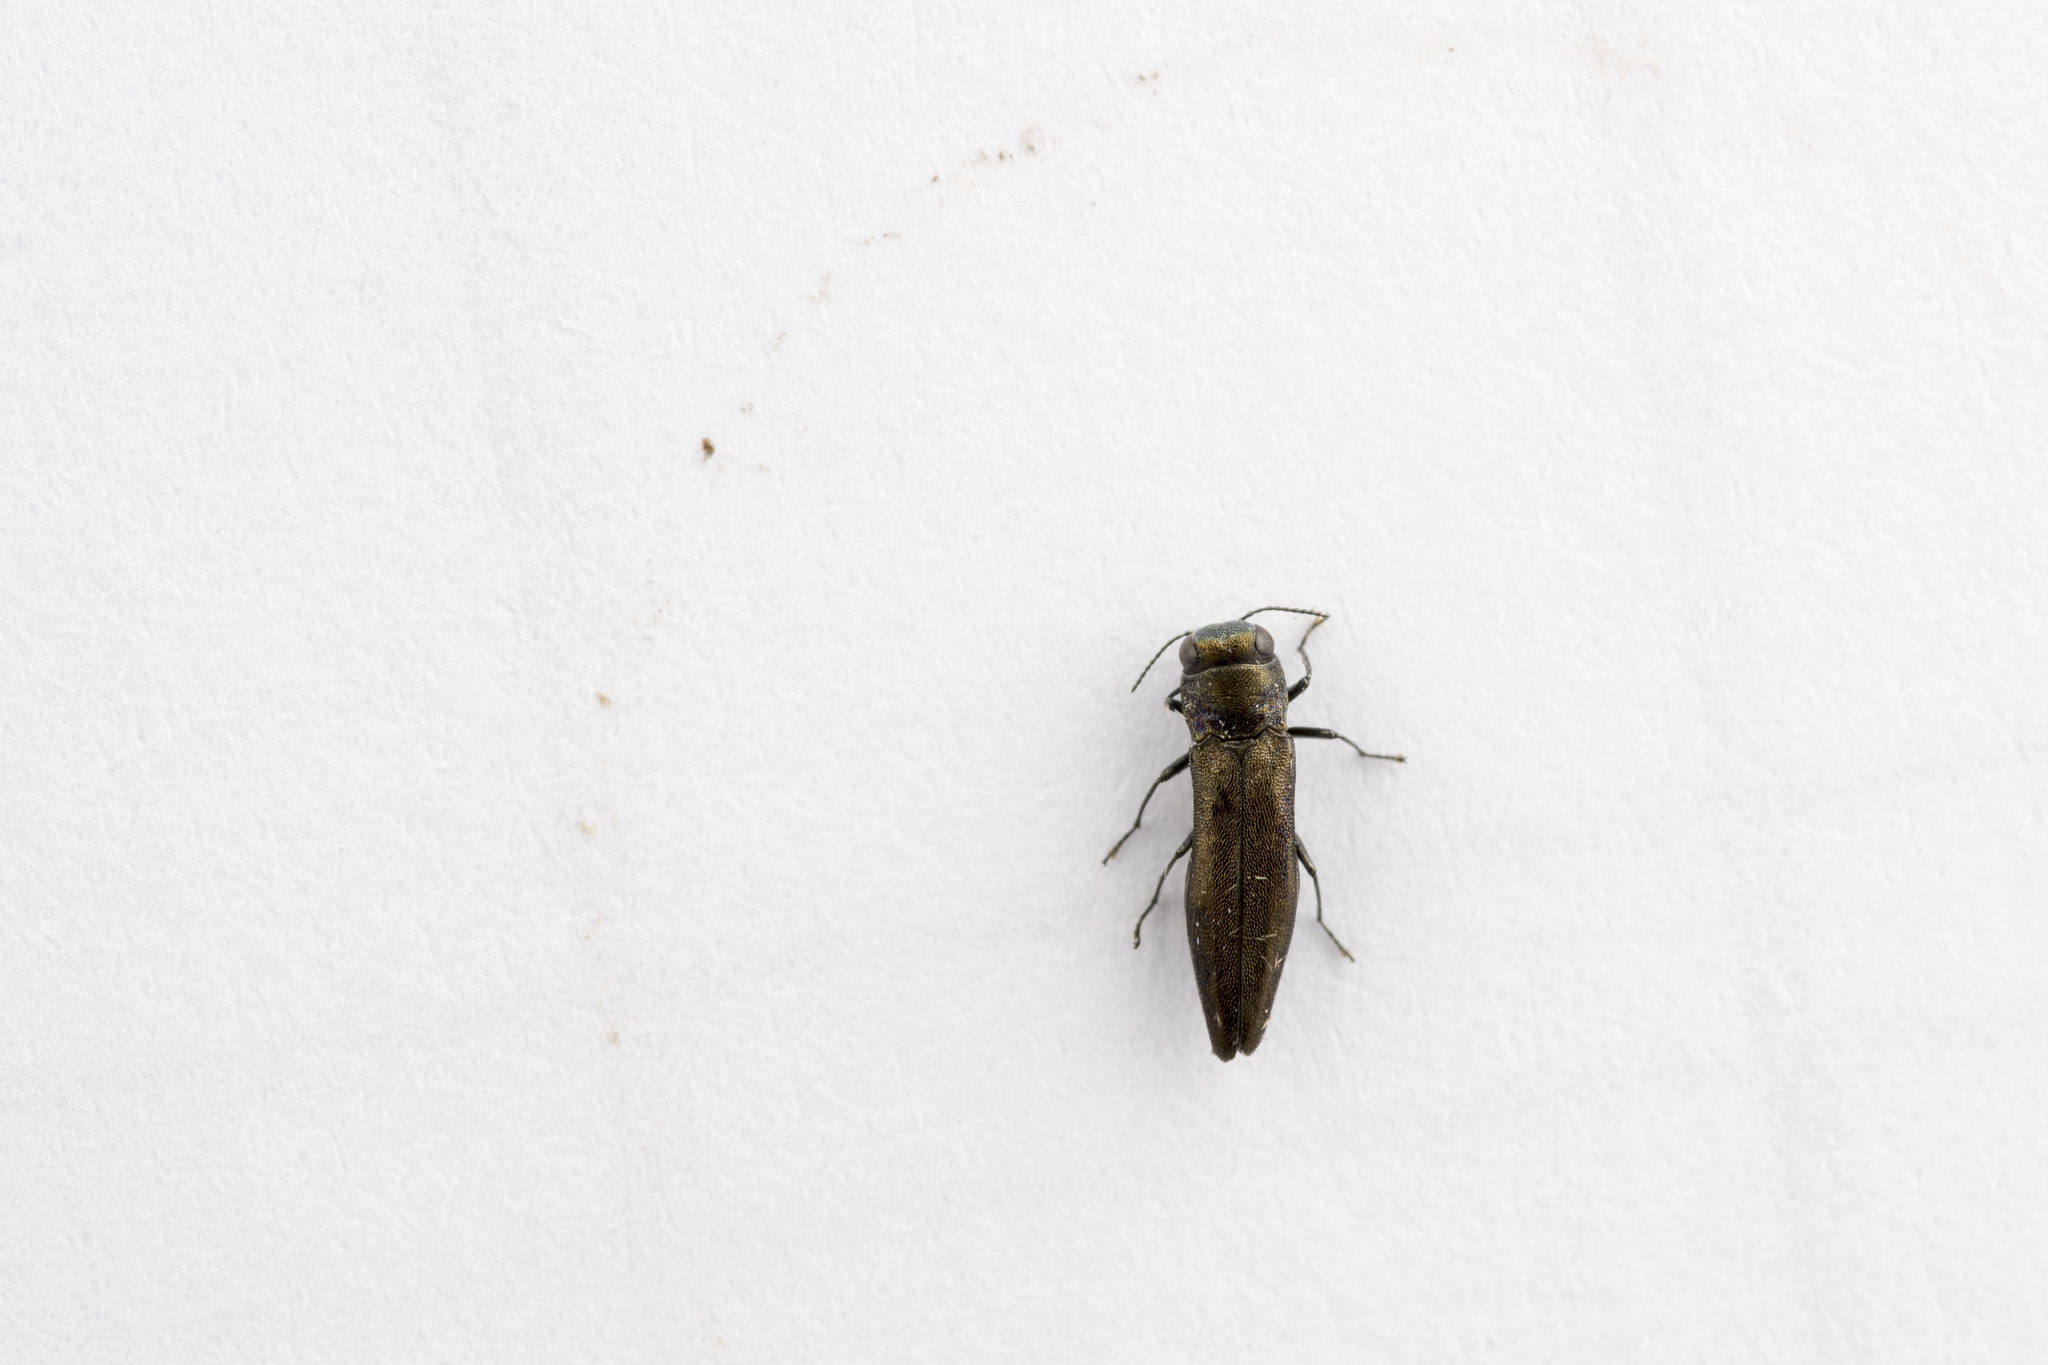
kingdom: Animalia
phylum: Arthropoda
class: Insecta
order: Coleoptera
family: Buprestidae
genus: Agrilus
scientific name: Agrilus tyndarus
